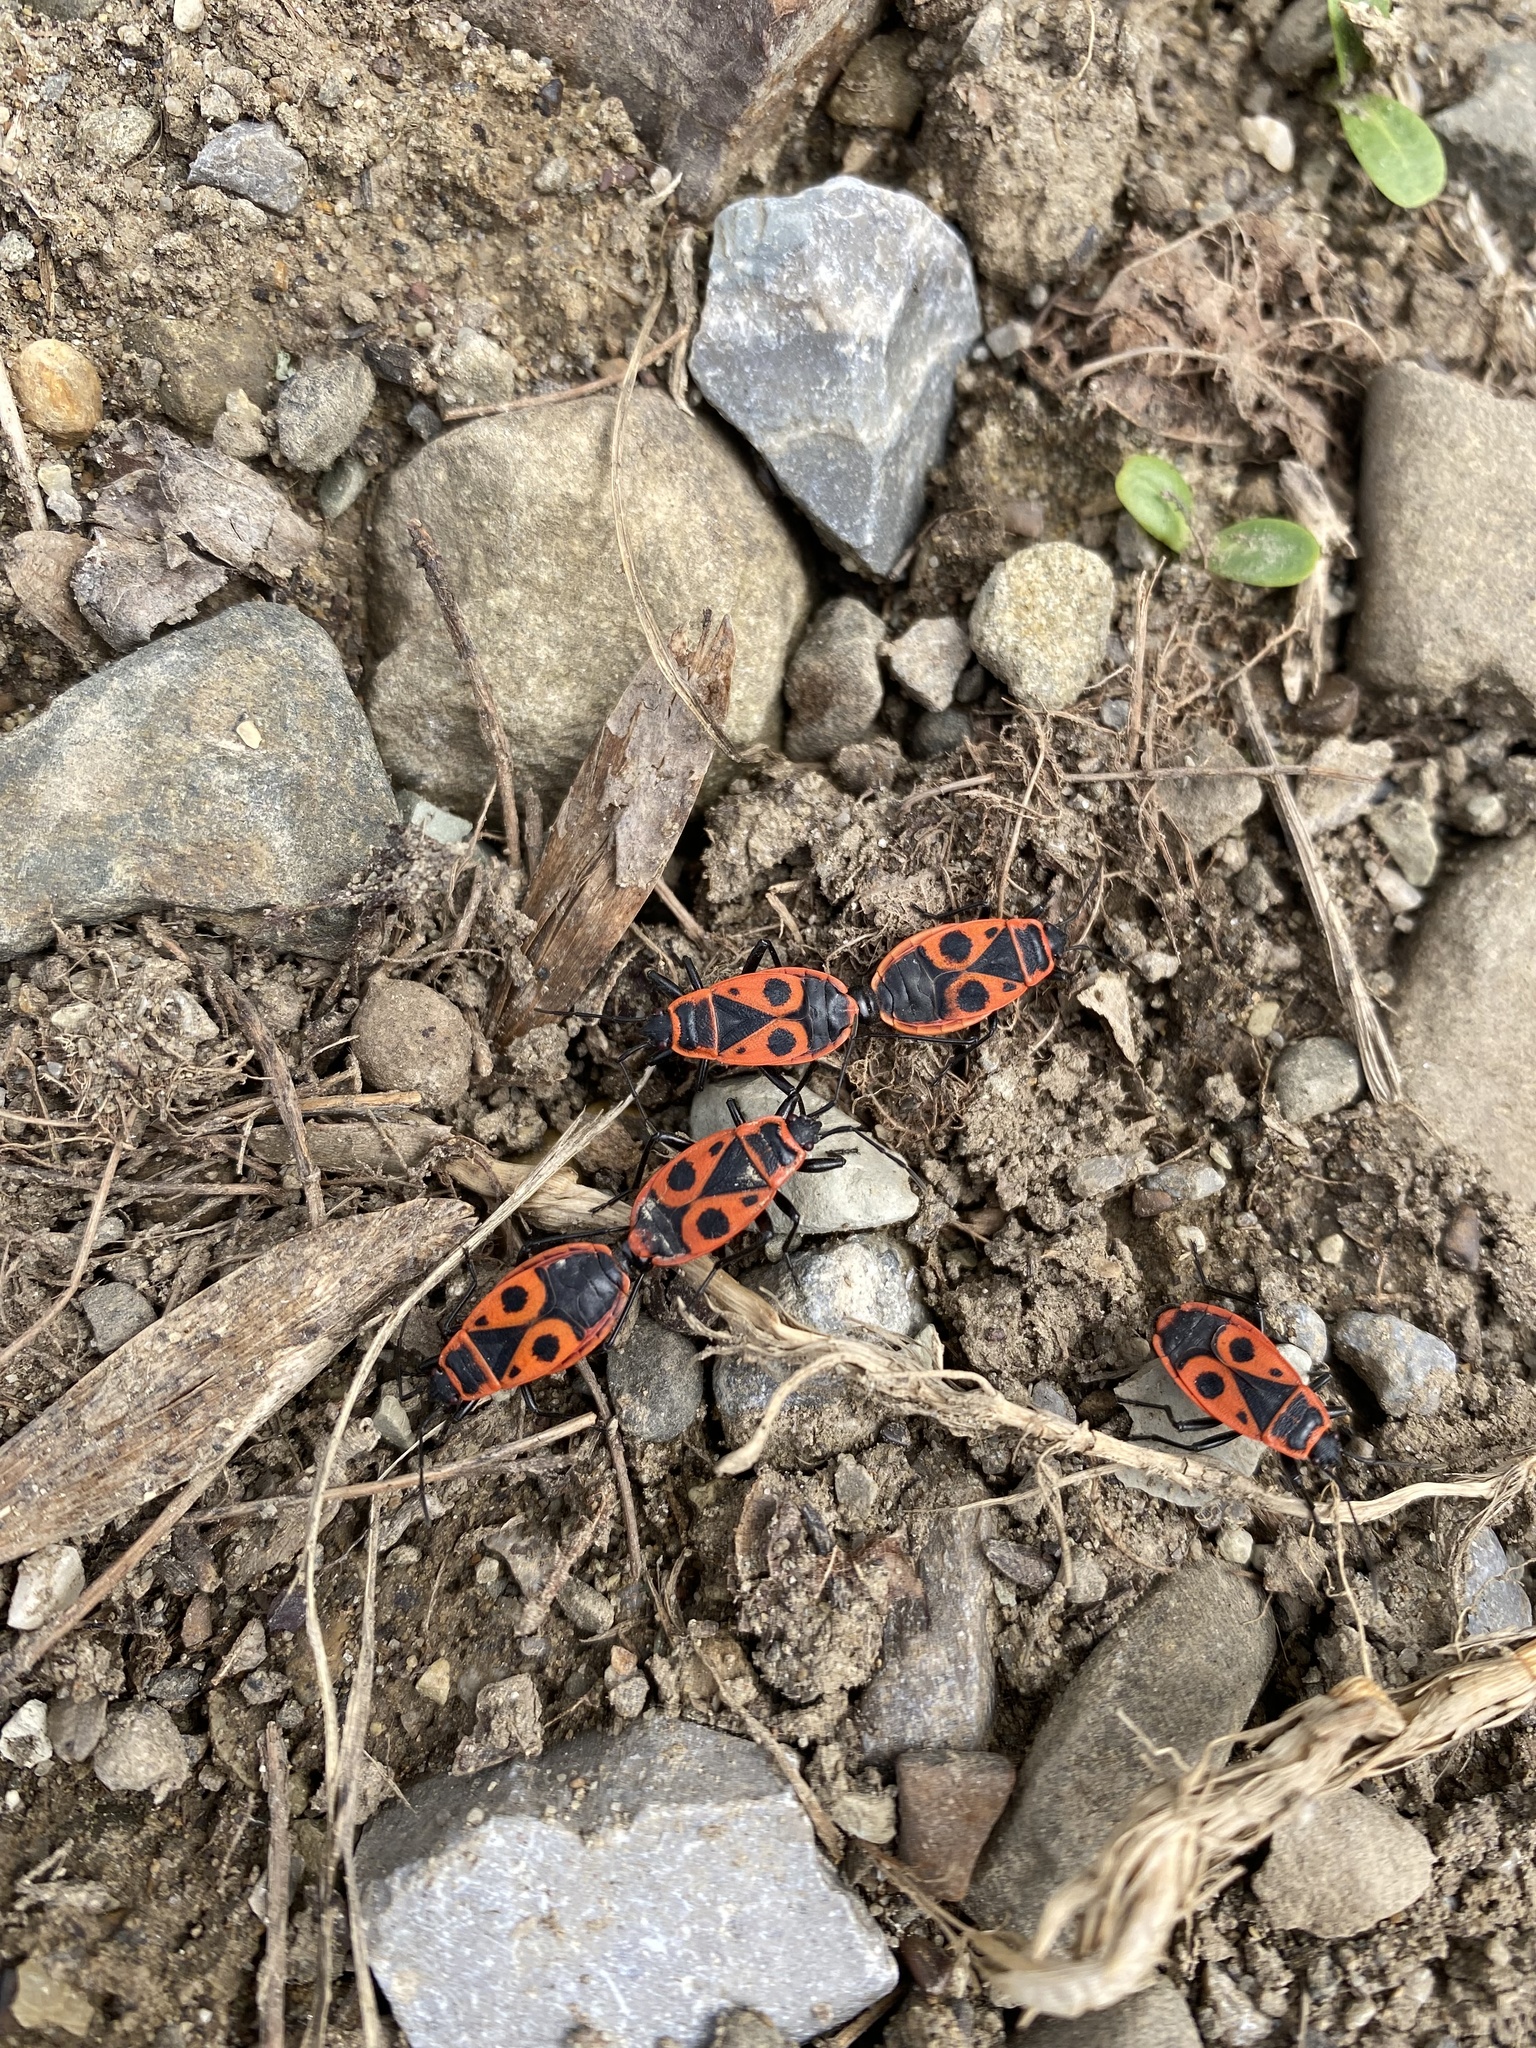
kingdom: Animalia
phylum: Arthropoda
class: Insecta
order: Hemiptera
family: Pyrrhocoridae
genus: Pyrrhocoris
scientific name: Pyrrhocoris apterus
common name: Firebug
